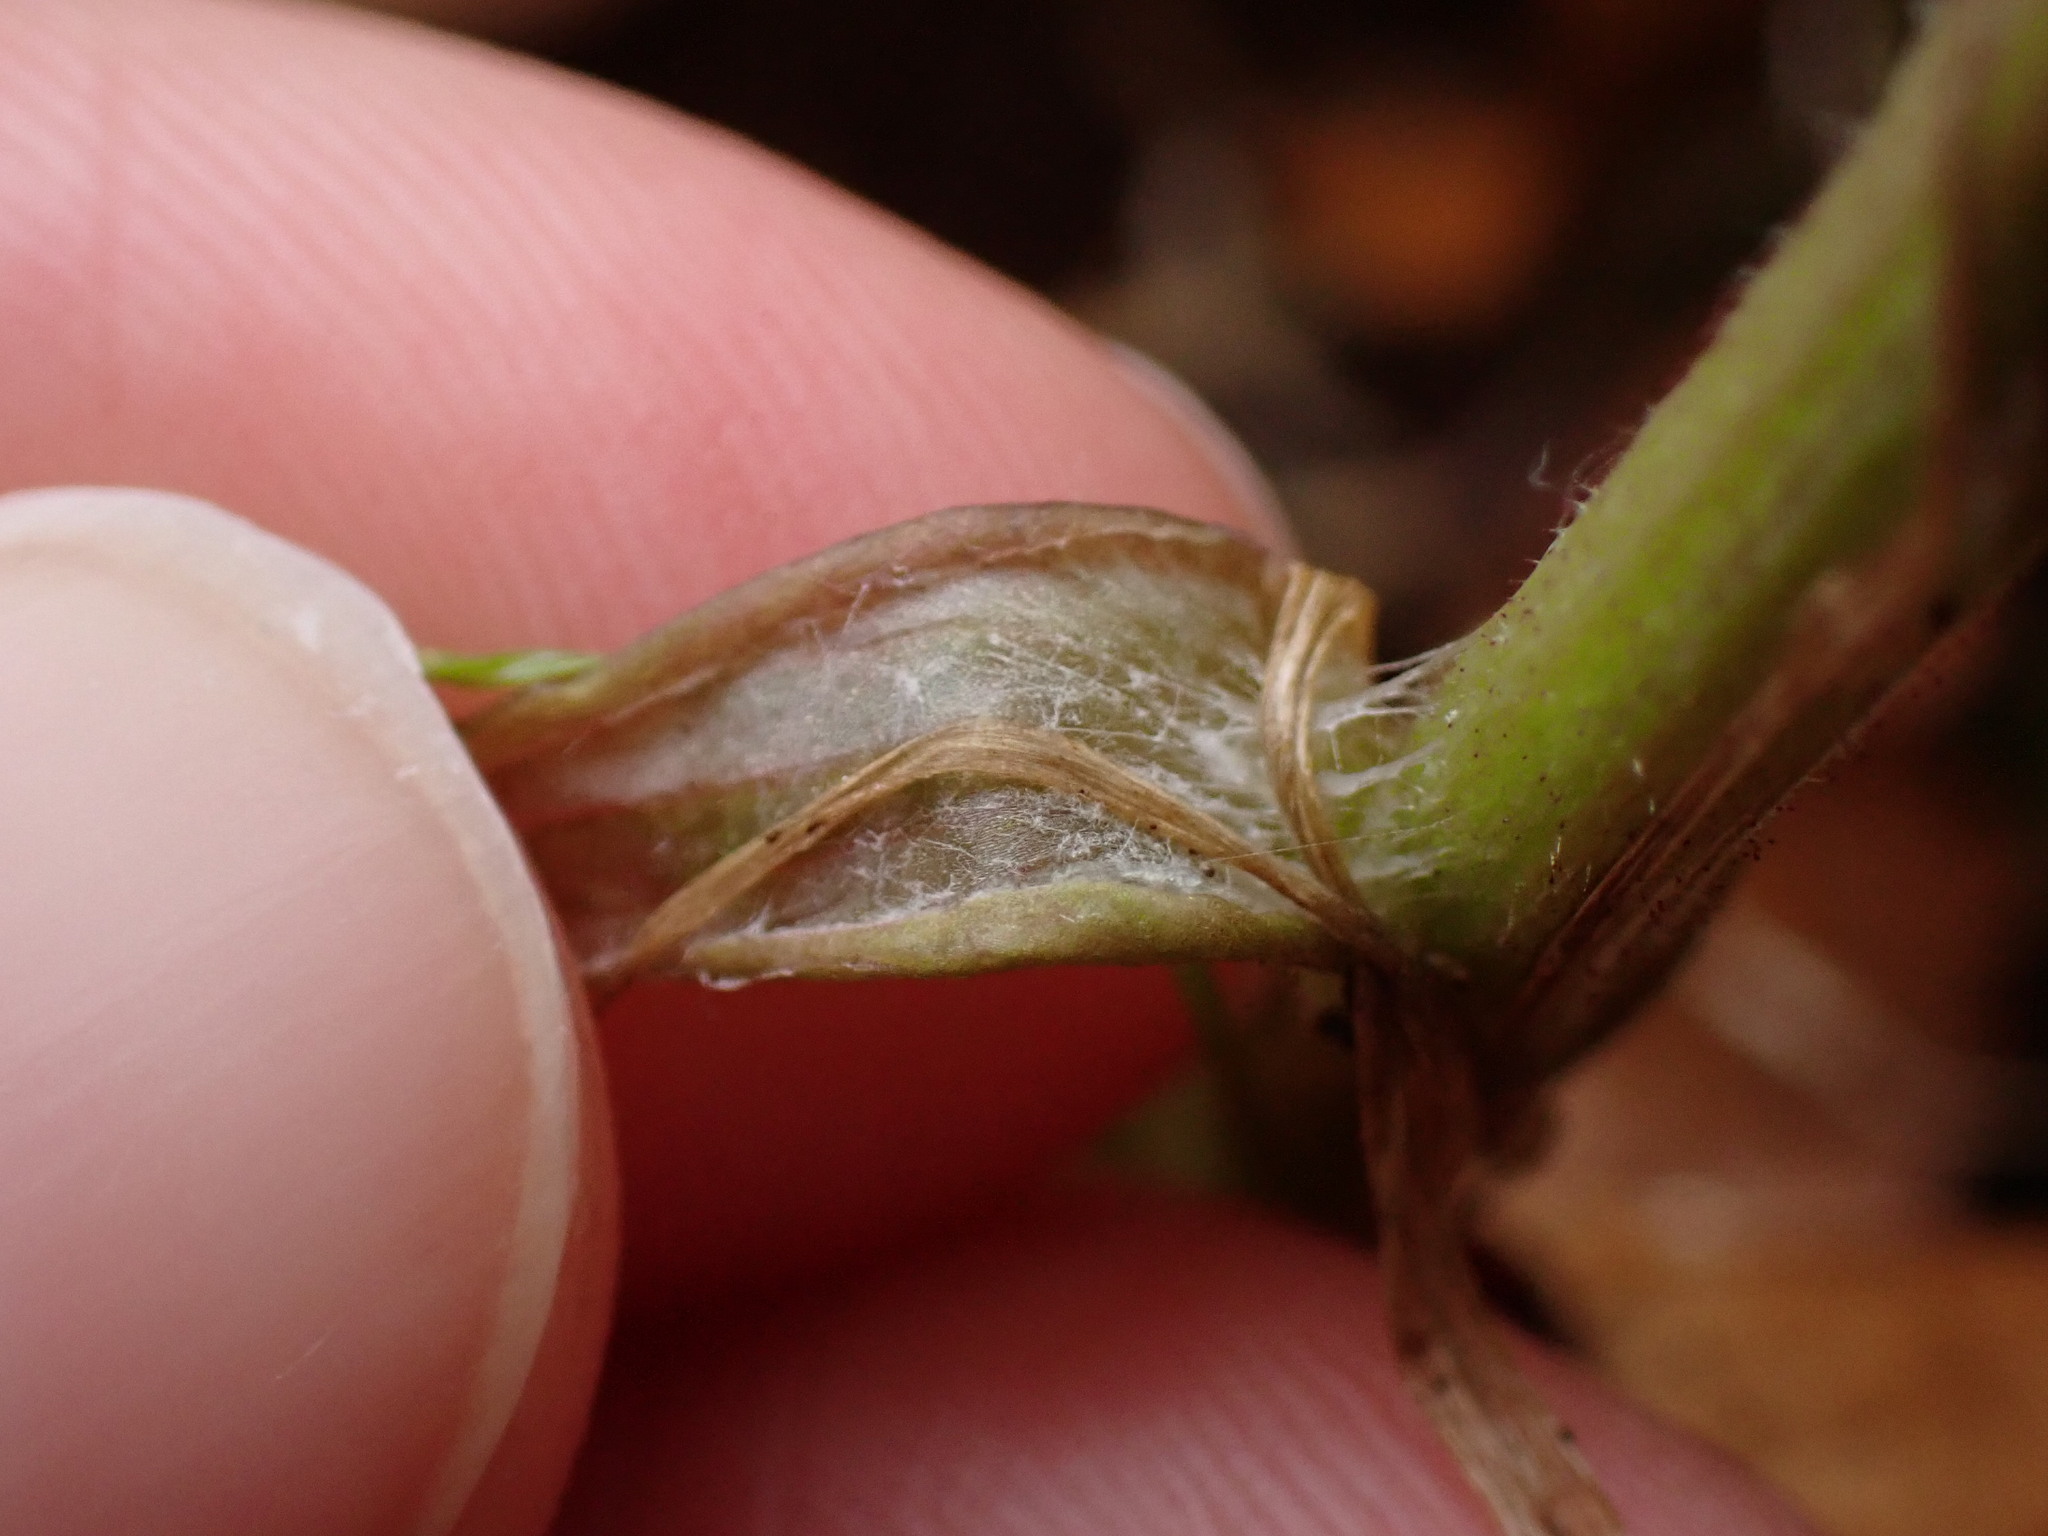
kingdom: Plantae
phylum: Tracheophyta
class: Magnoliopsida
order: Asterales
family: Asteraceae
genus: Tussilago
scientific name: Tussilago farfara
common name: Coltsfoot
